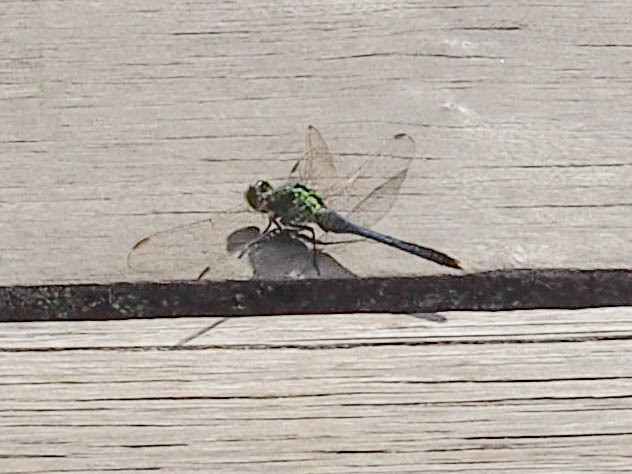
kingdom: Animalia
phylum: Arthropoda
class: Insecta
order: Odonata
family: Libellulidae
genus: Erythemis
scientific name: Erythemis simplicicollis
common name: Eastern pondhawk
